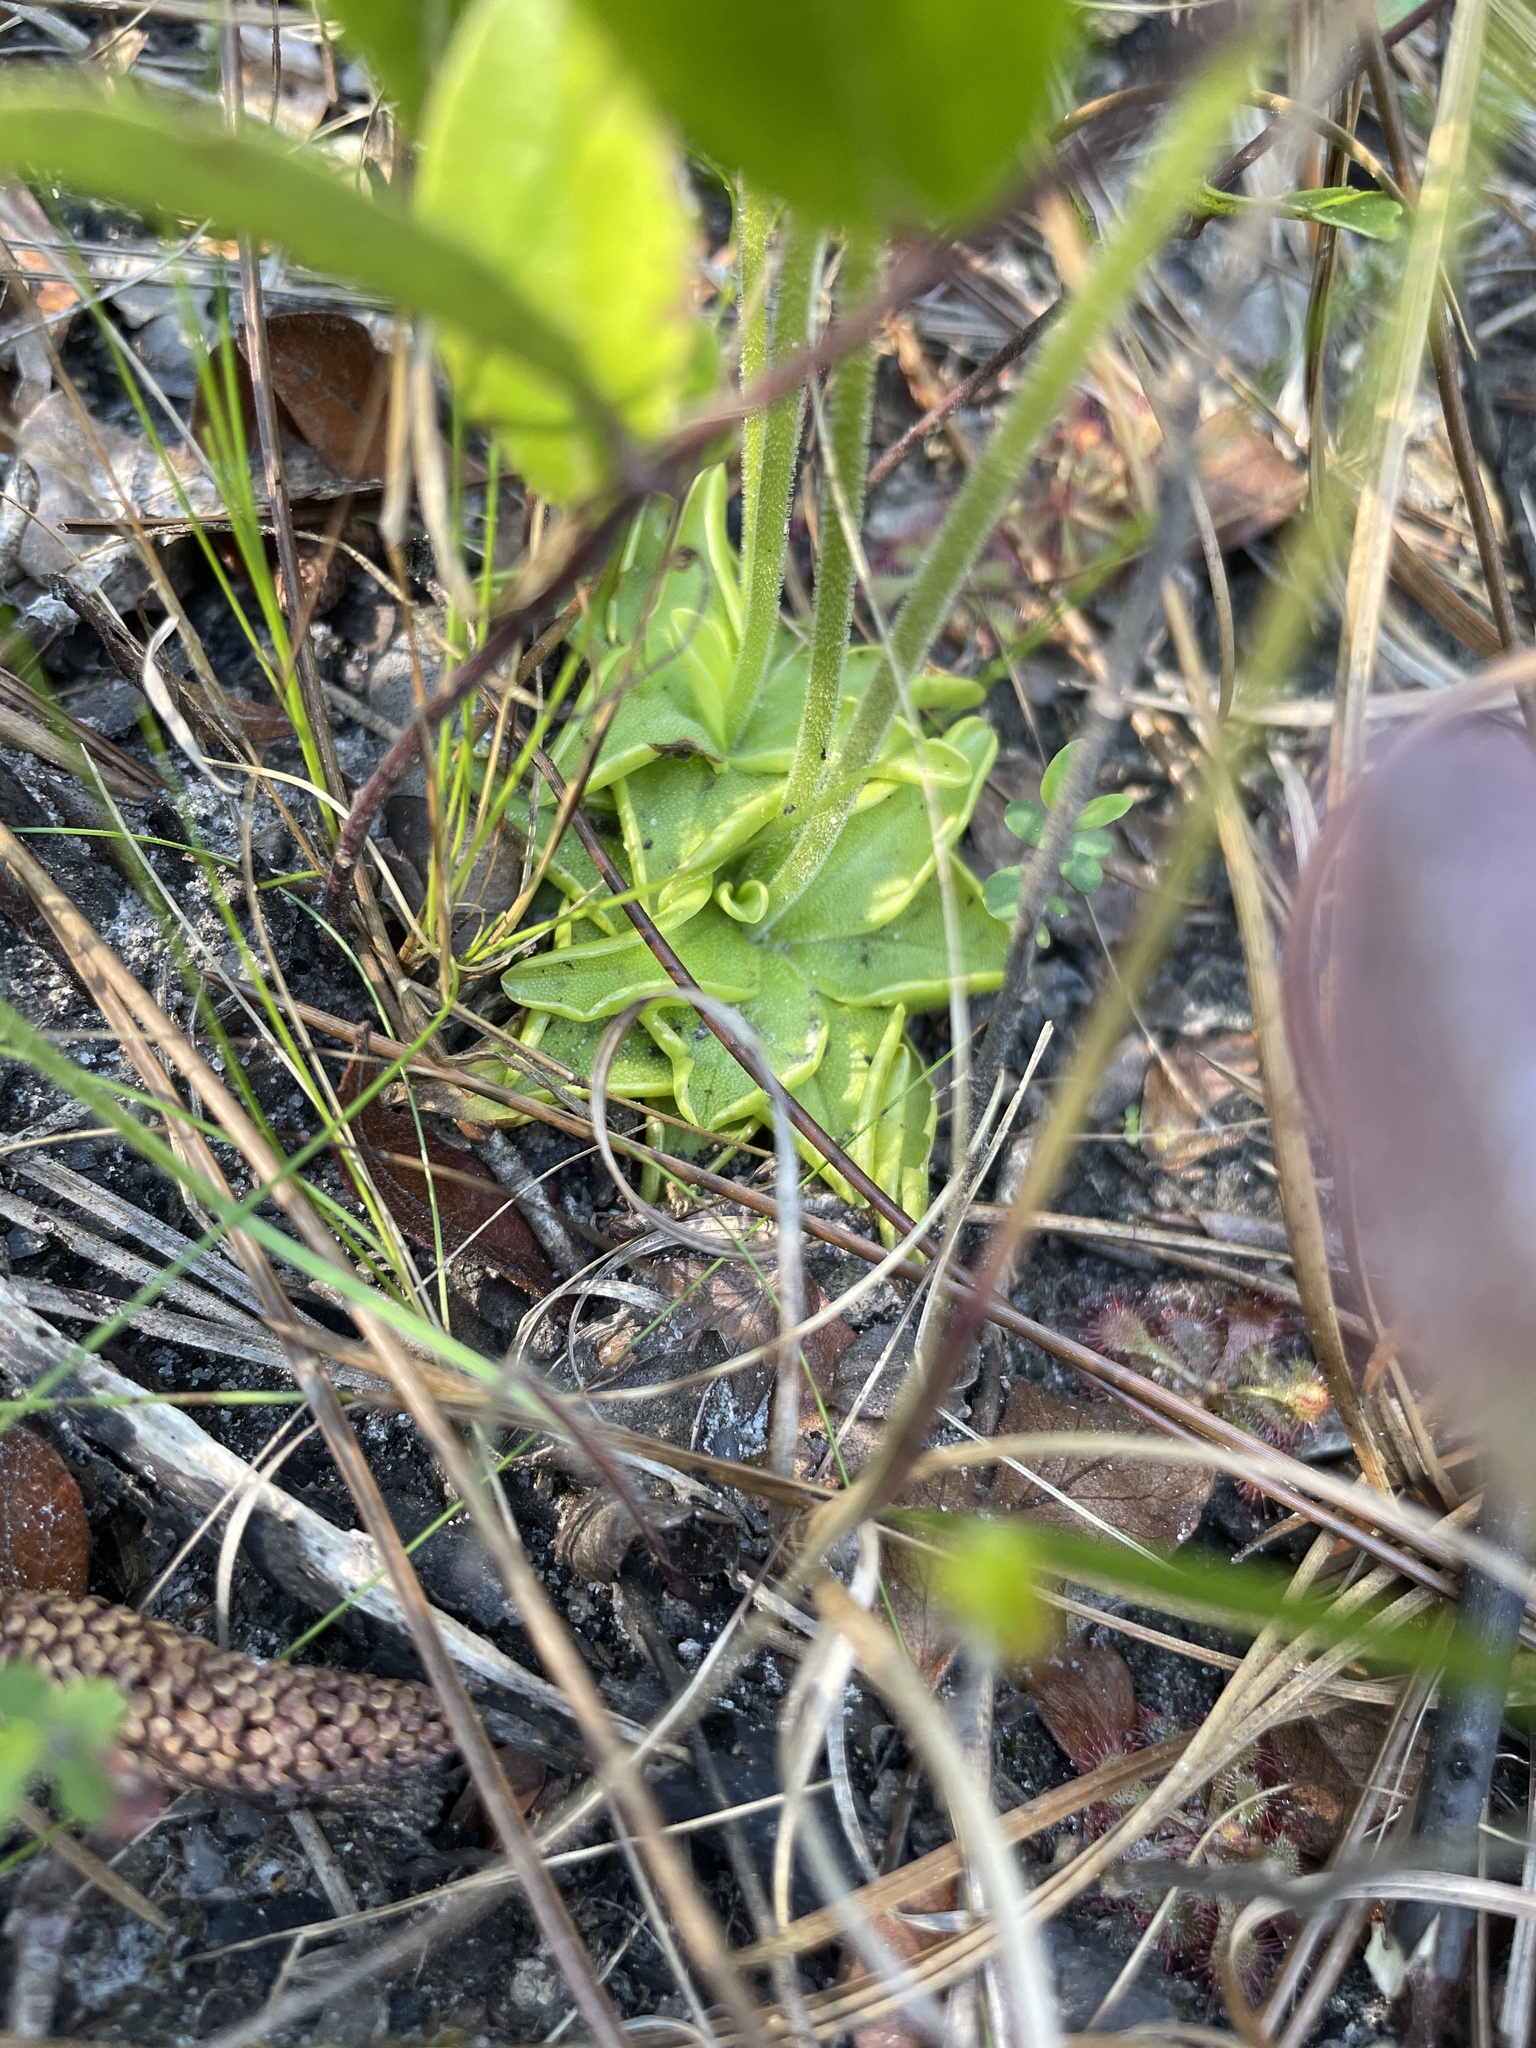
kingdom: Plantae
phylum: Tracheophyta
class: Magnoliopsida
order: Lamiales
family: Lentibulariaceae
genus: Pinguicula
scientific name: Pinguicula lutea
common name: Yellow butterwort
